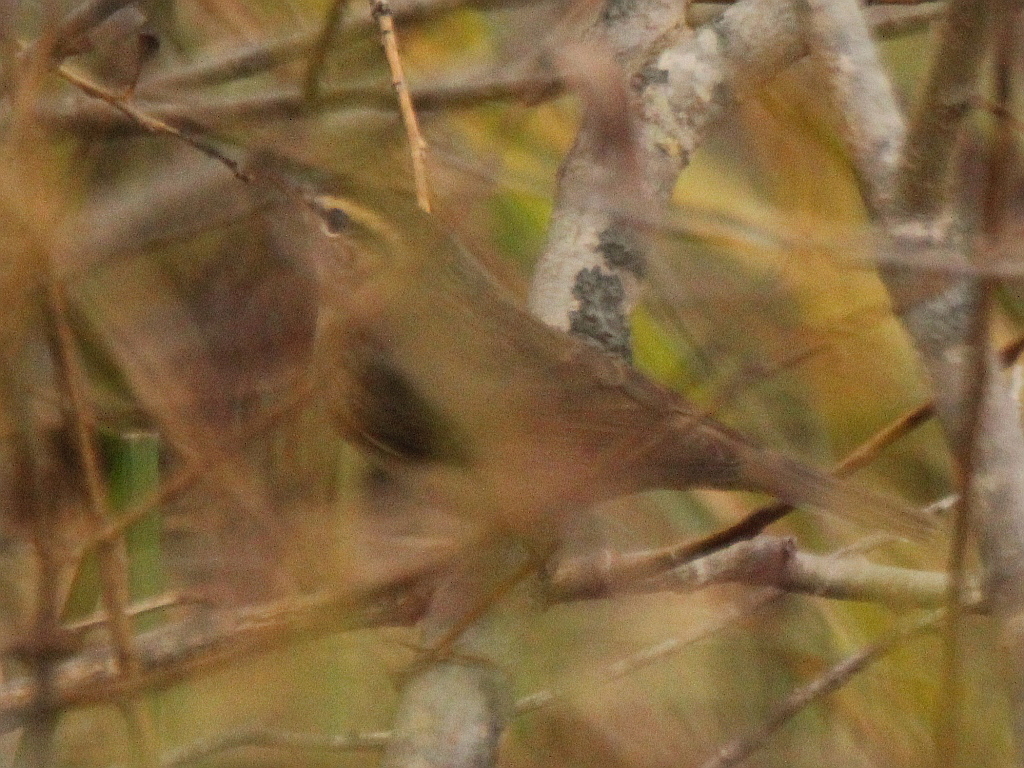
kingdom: Animalia
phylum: Chordata
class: Aves
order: Passeriformes
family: Phylloscopidae
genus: Phylloscopus
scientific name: Phylloscopus fuscatus
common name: Dusky warbler
